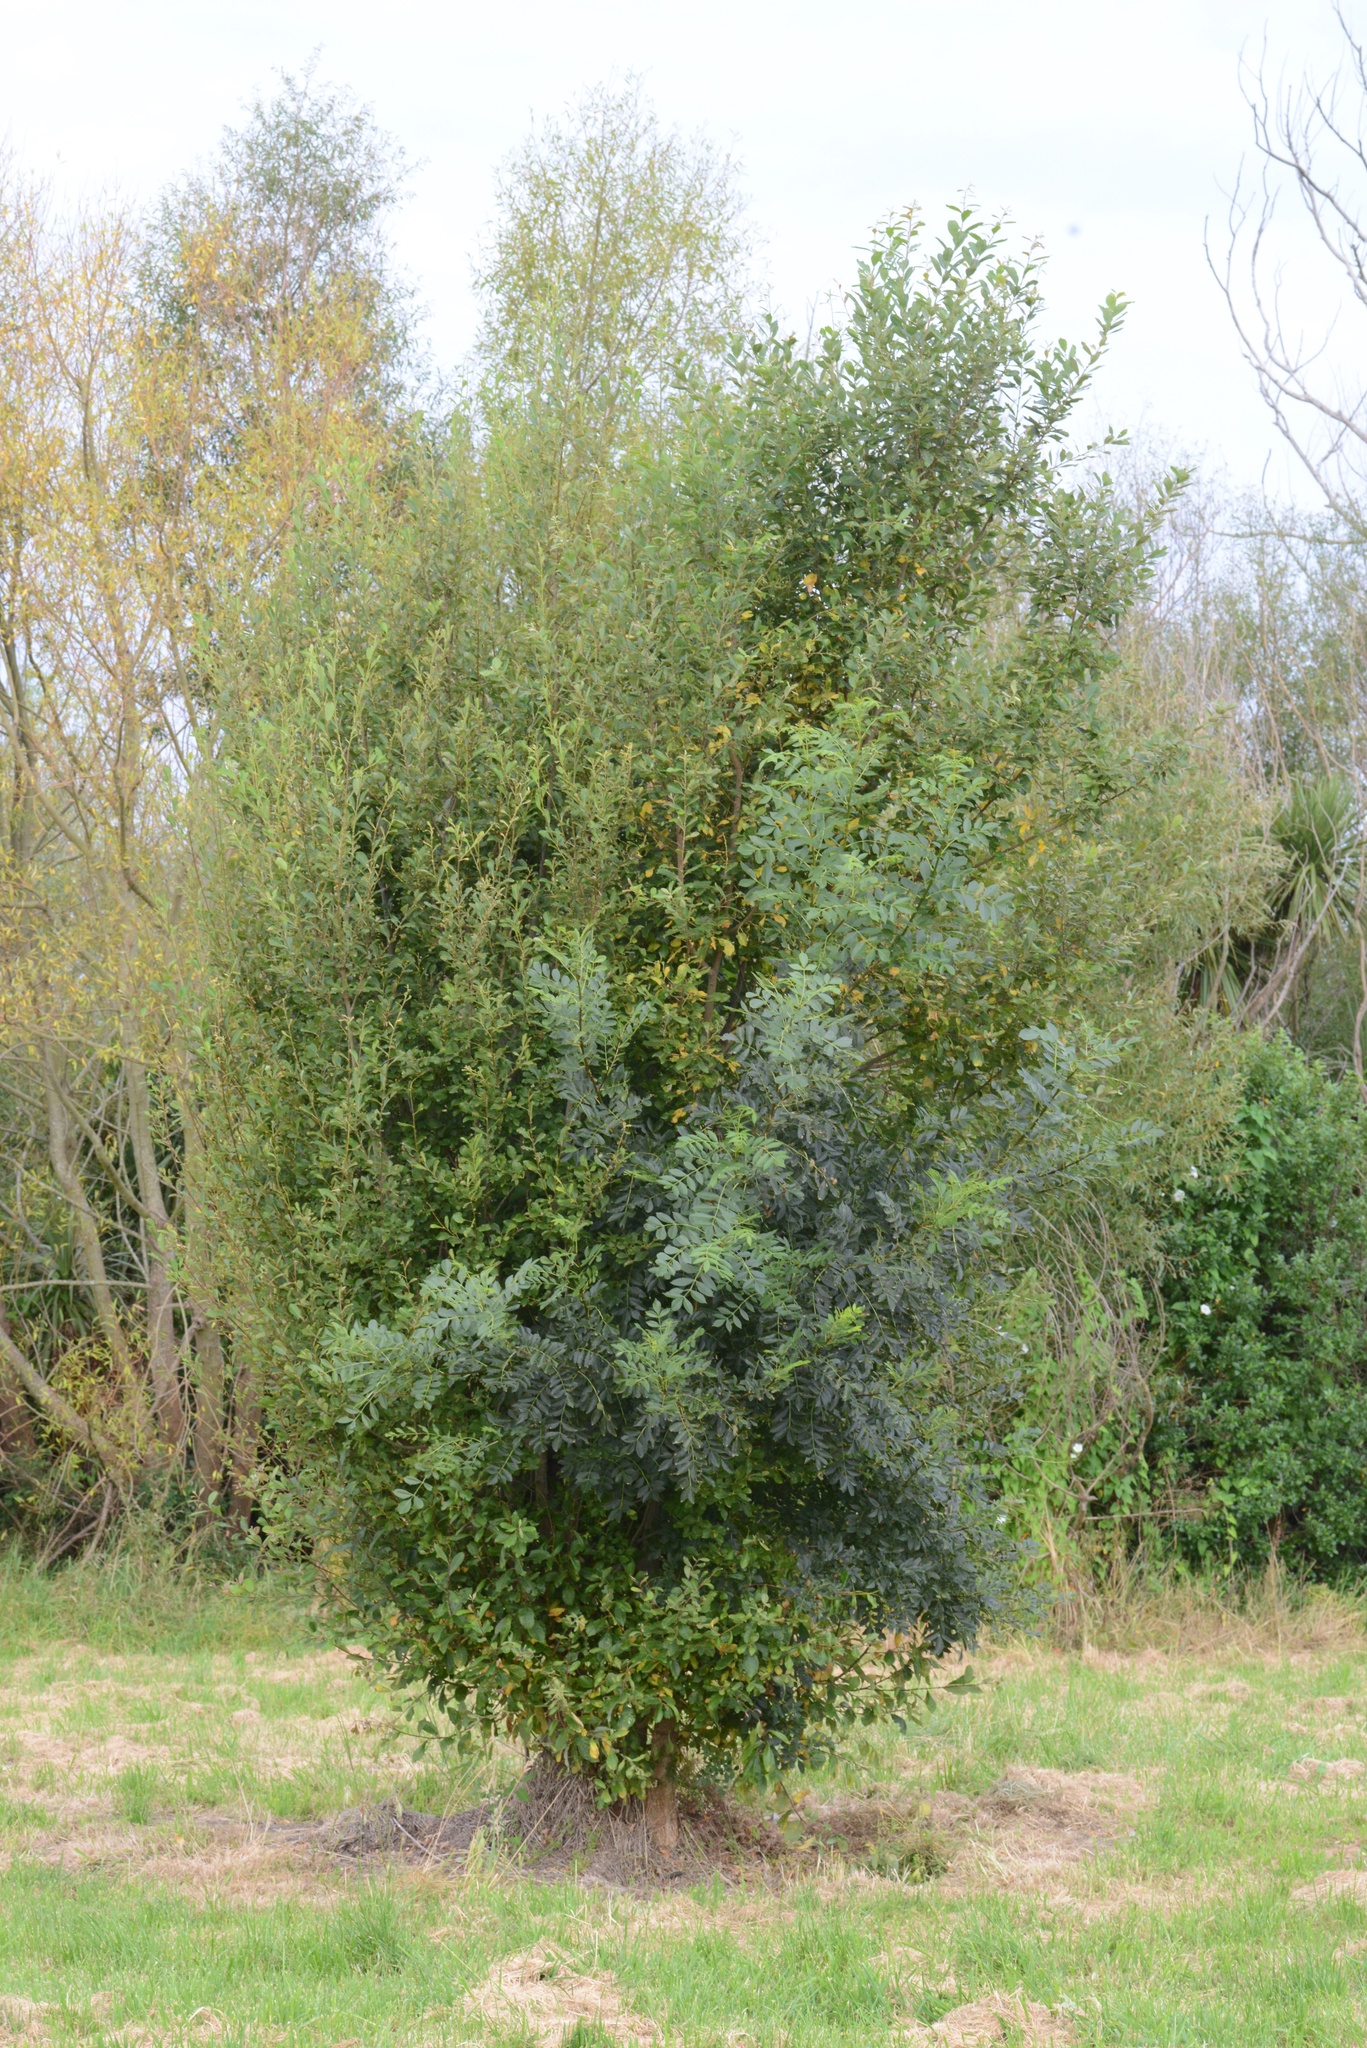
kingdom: Plantae
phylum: Tracheophyta
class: Magnoliopsida
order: Lamiales
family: Oleaceae
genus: Fraxinus
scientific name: Fraxinus excelsior
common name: European ash
